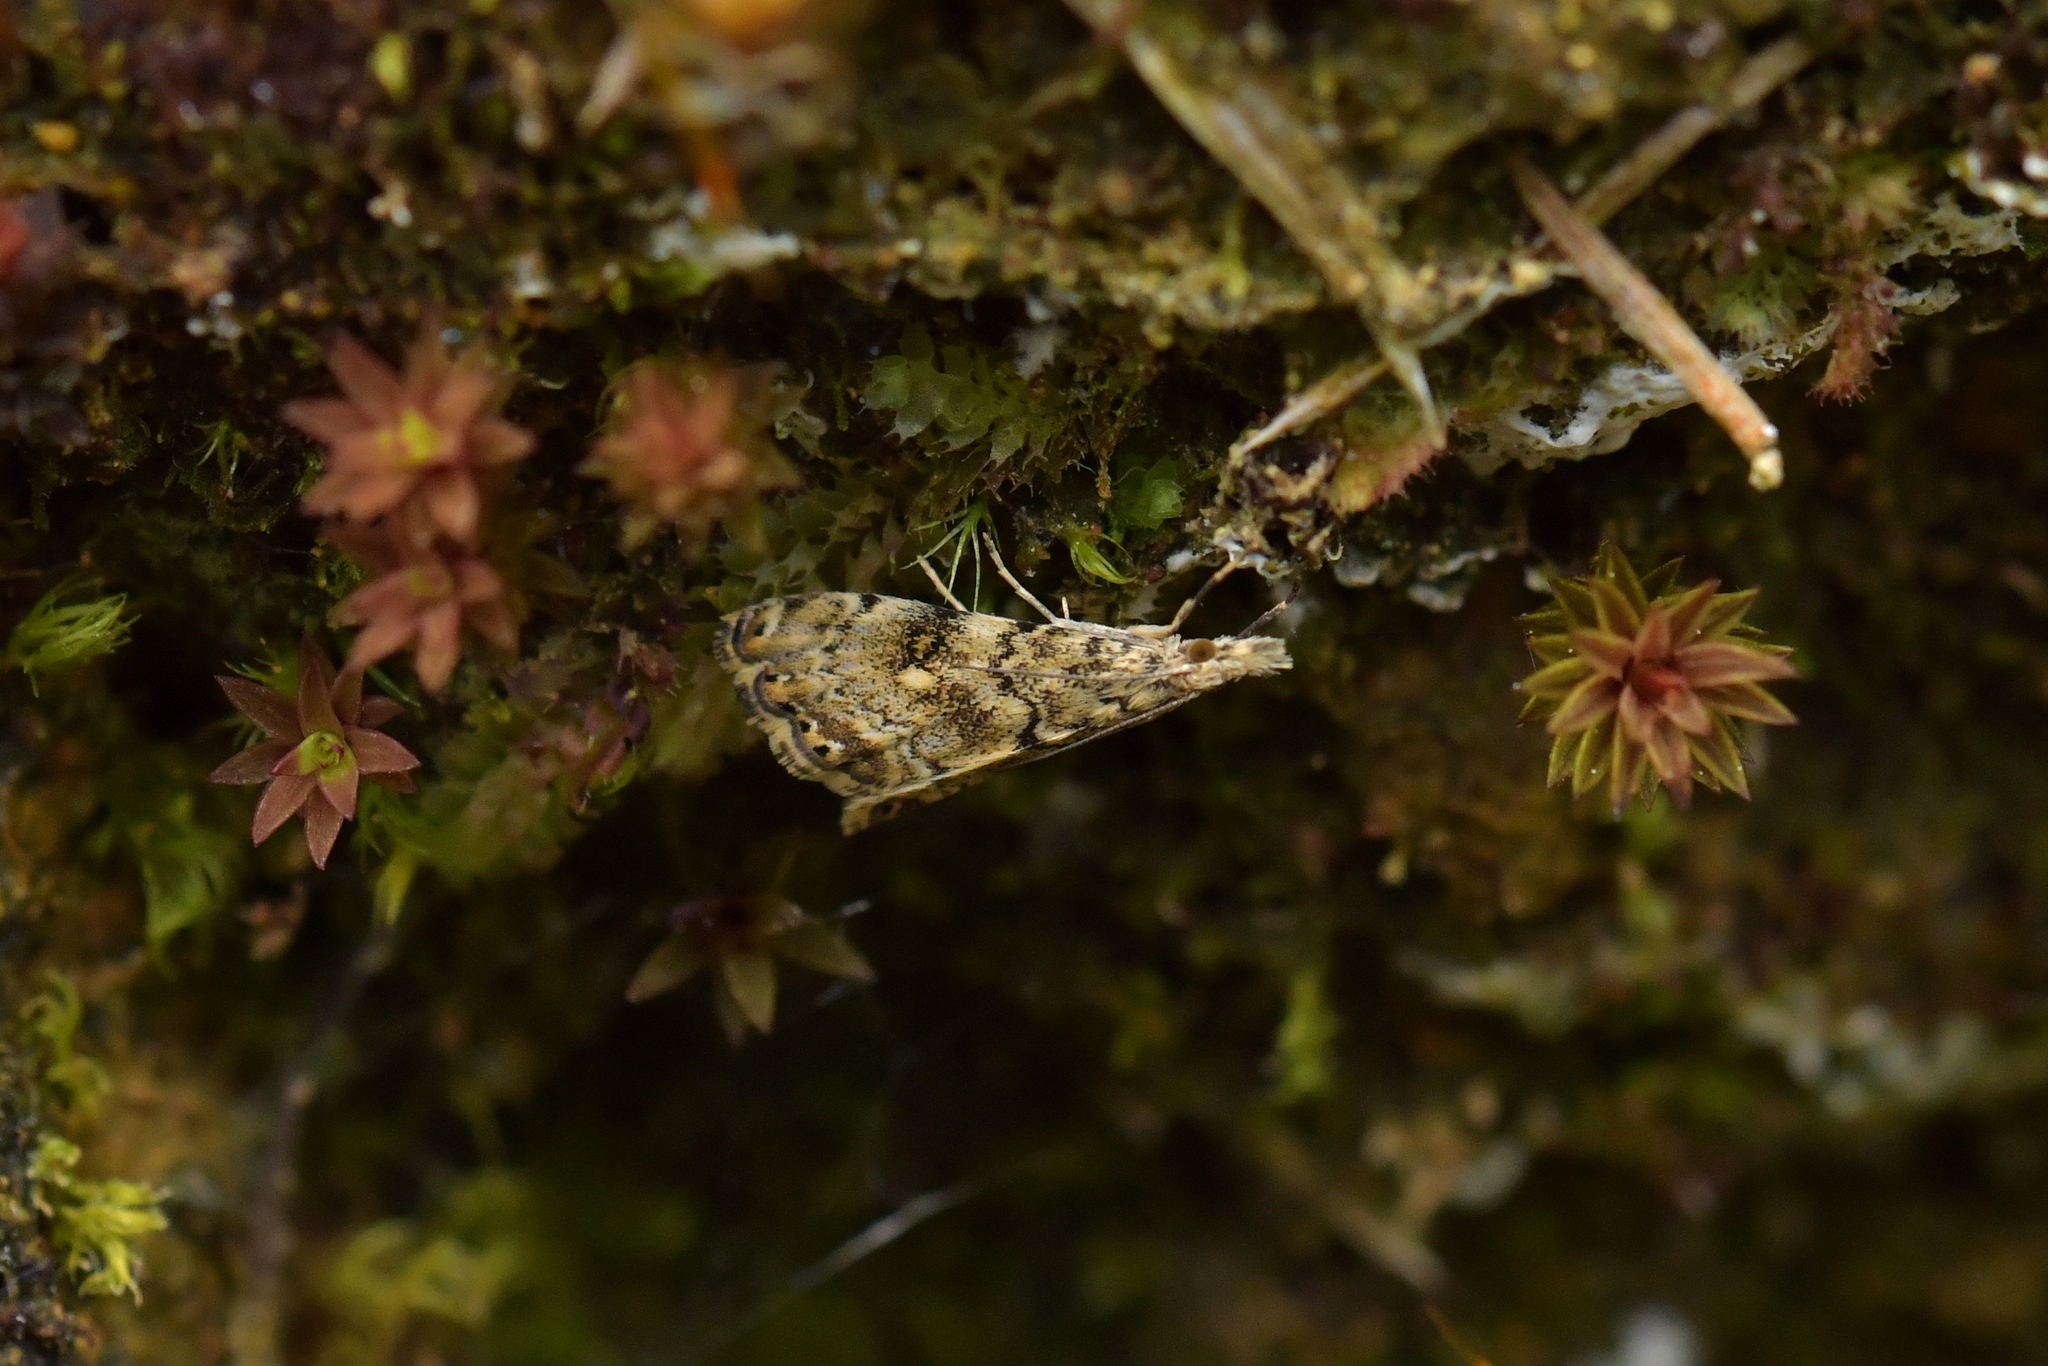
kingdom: Animalia
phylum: Arthropoda
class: Insecta
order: Lepidoptera
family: Crambidae
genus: Glaucocharis
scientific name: Glaucocharis parorma
